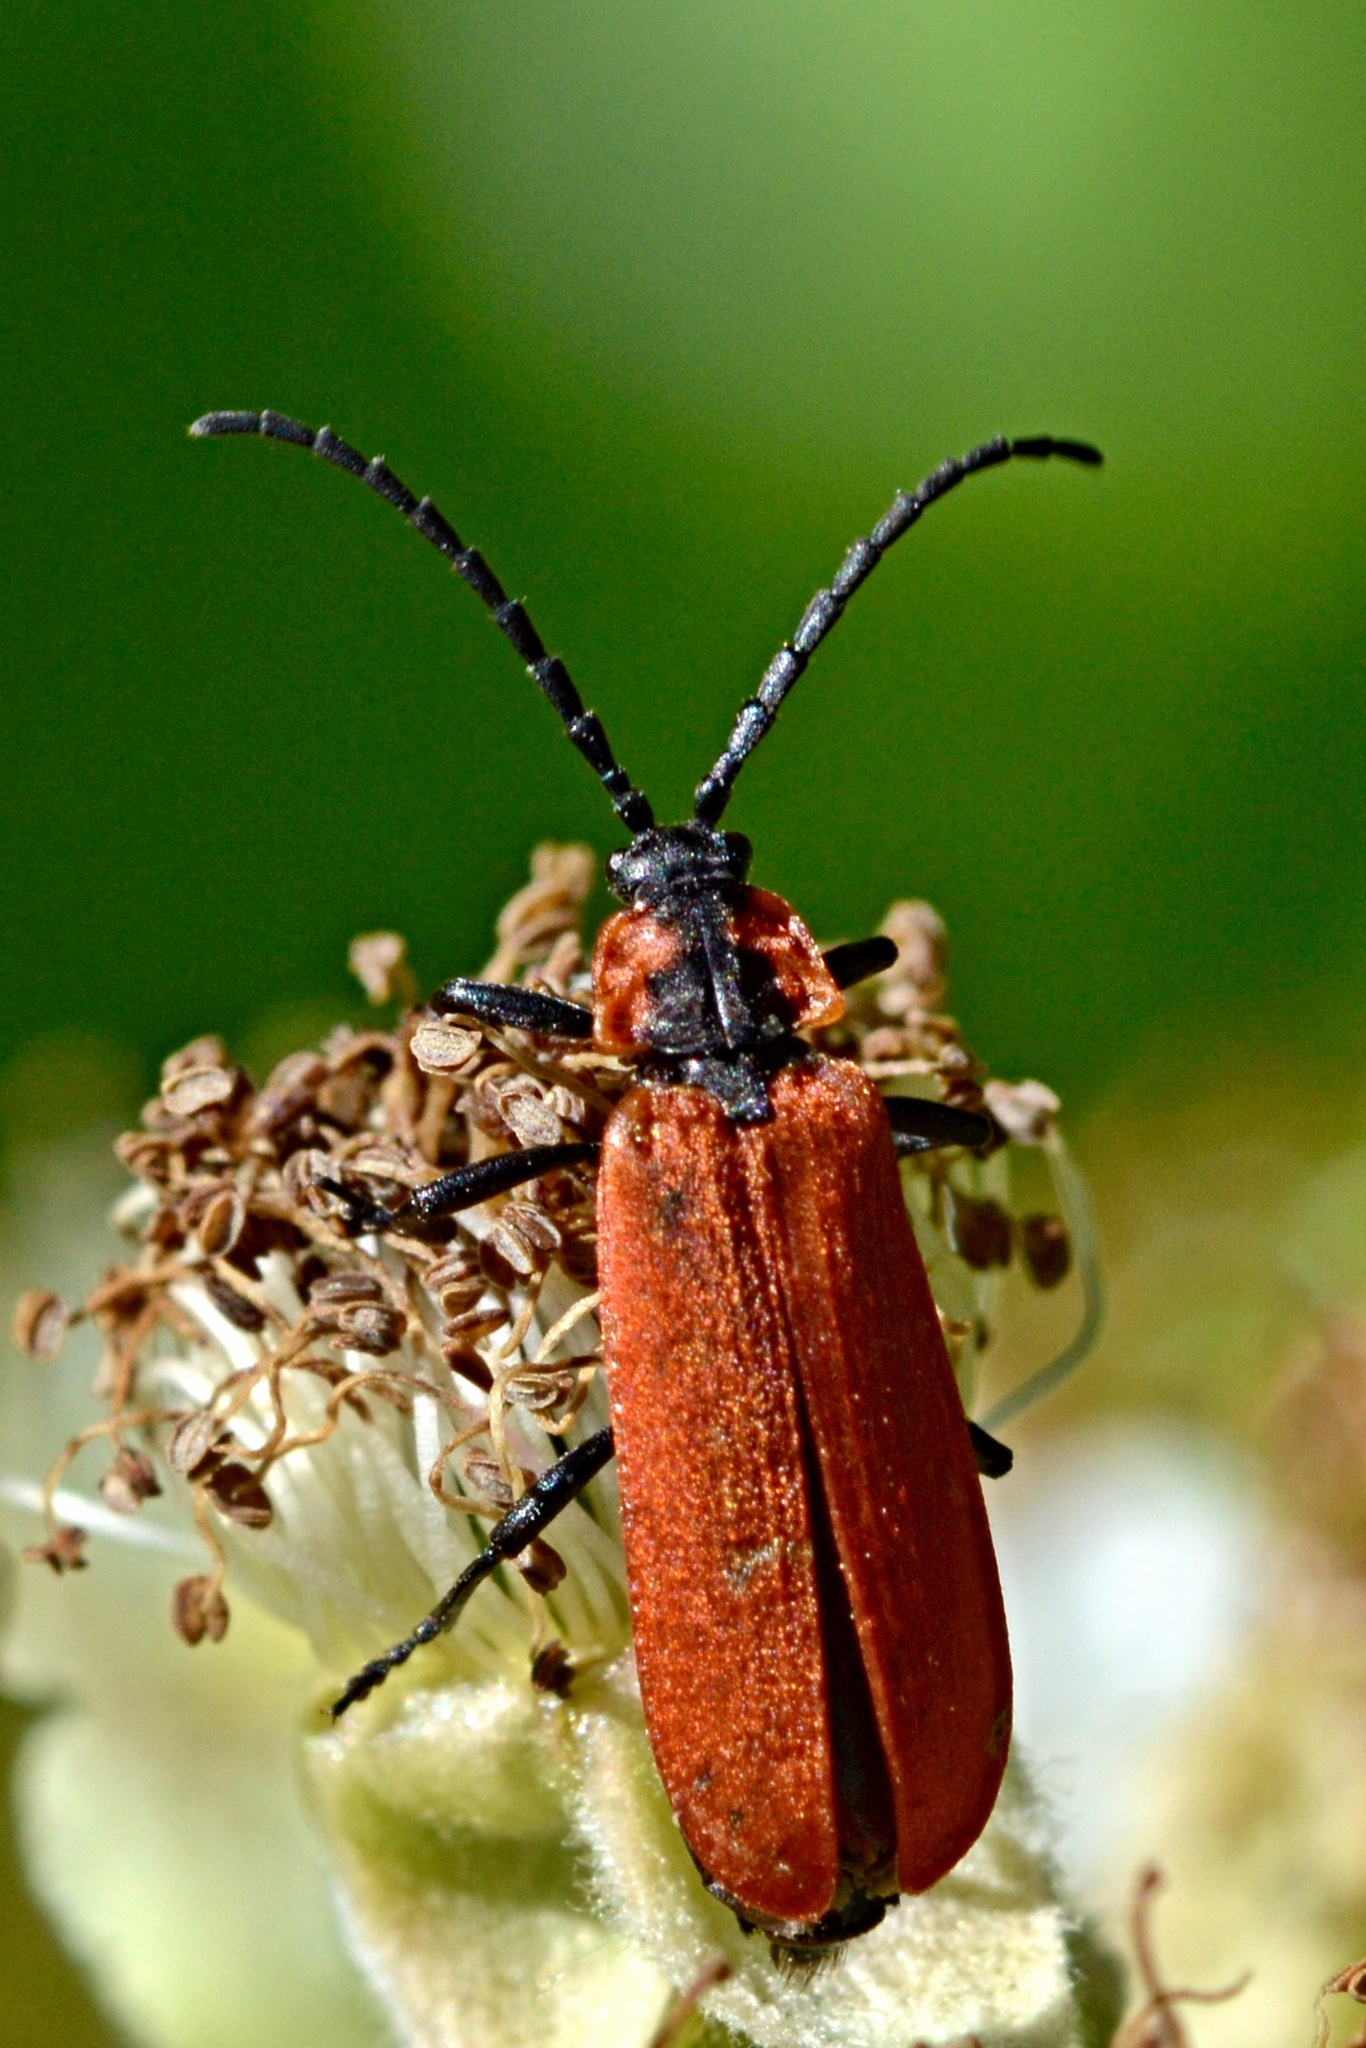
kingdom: Animalia
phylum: Arthropoda
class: Insecta
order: Coleoptera
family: Lycidae
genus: Lygistopterus
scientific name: Lygistopterus sanguineus
